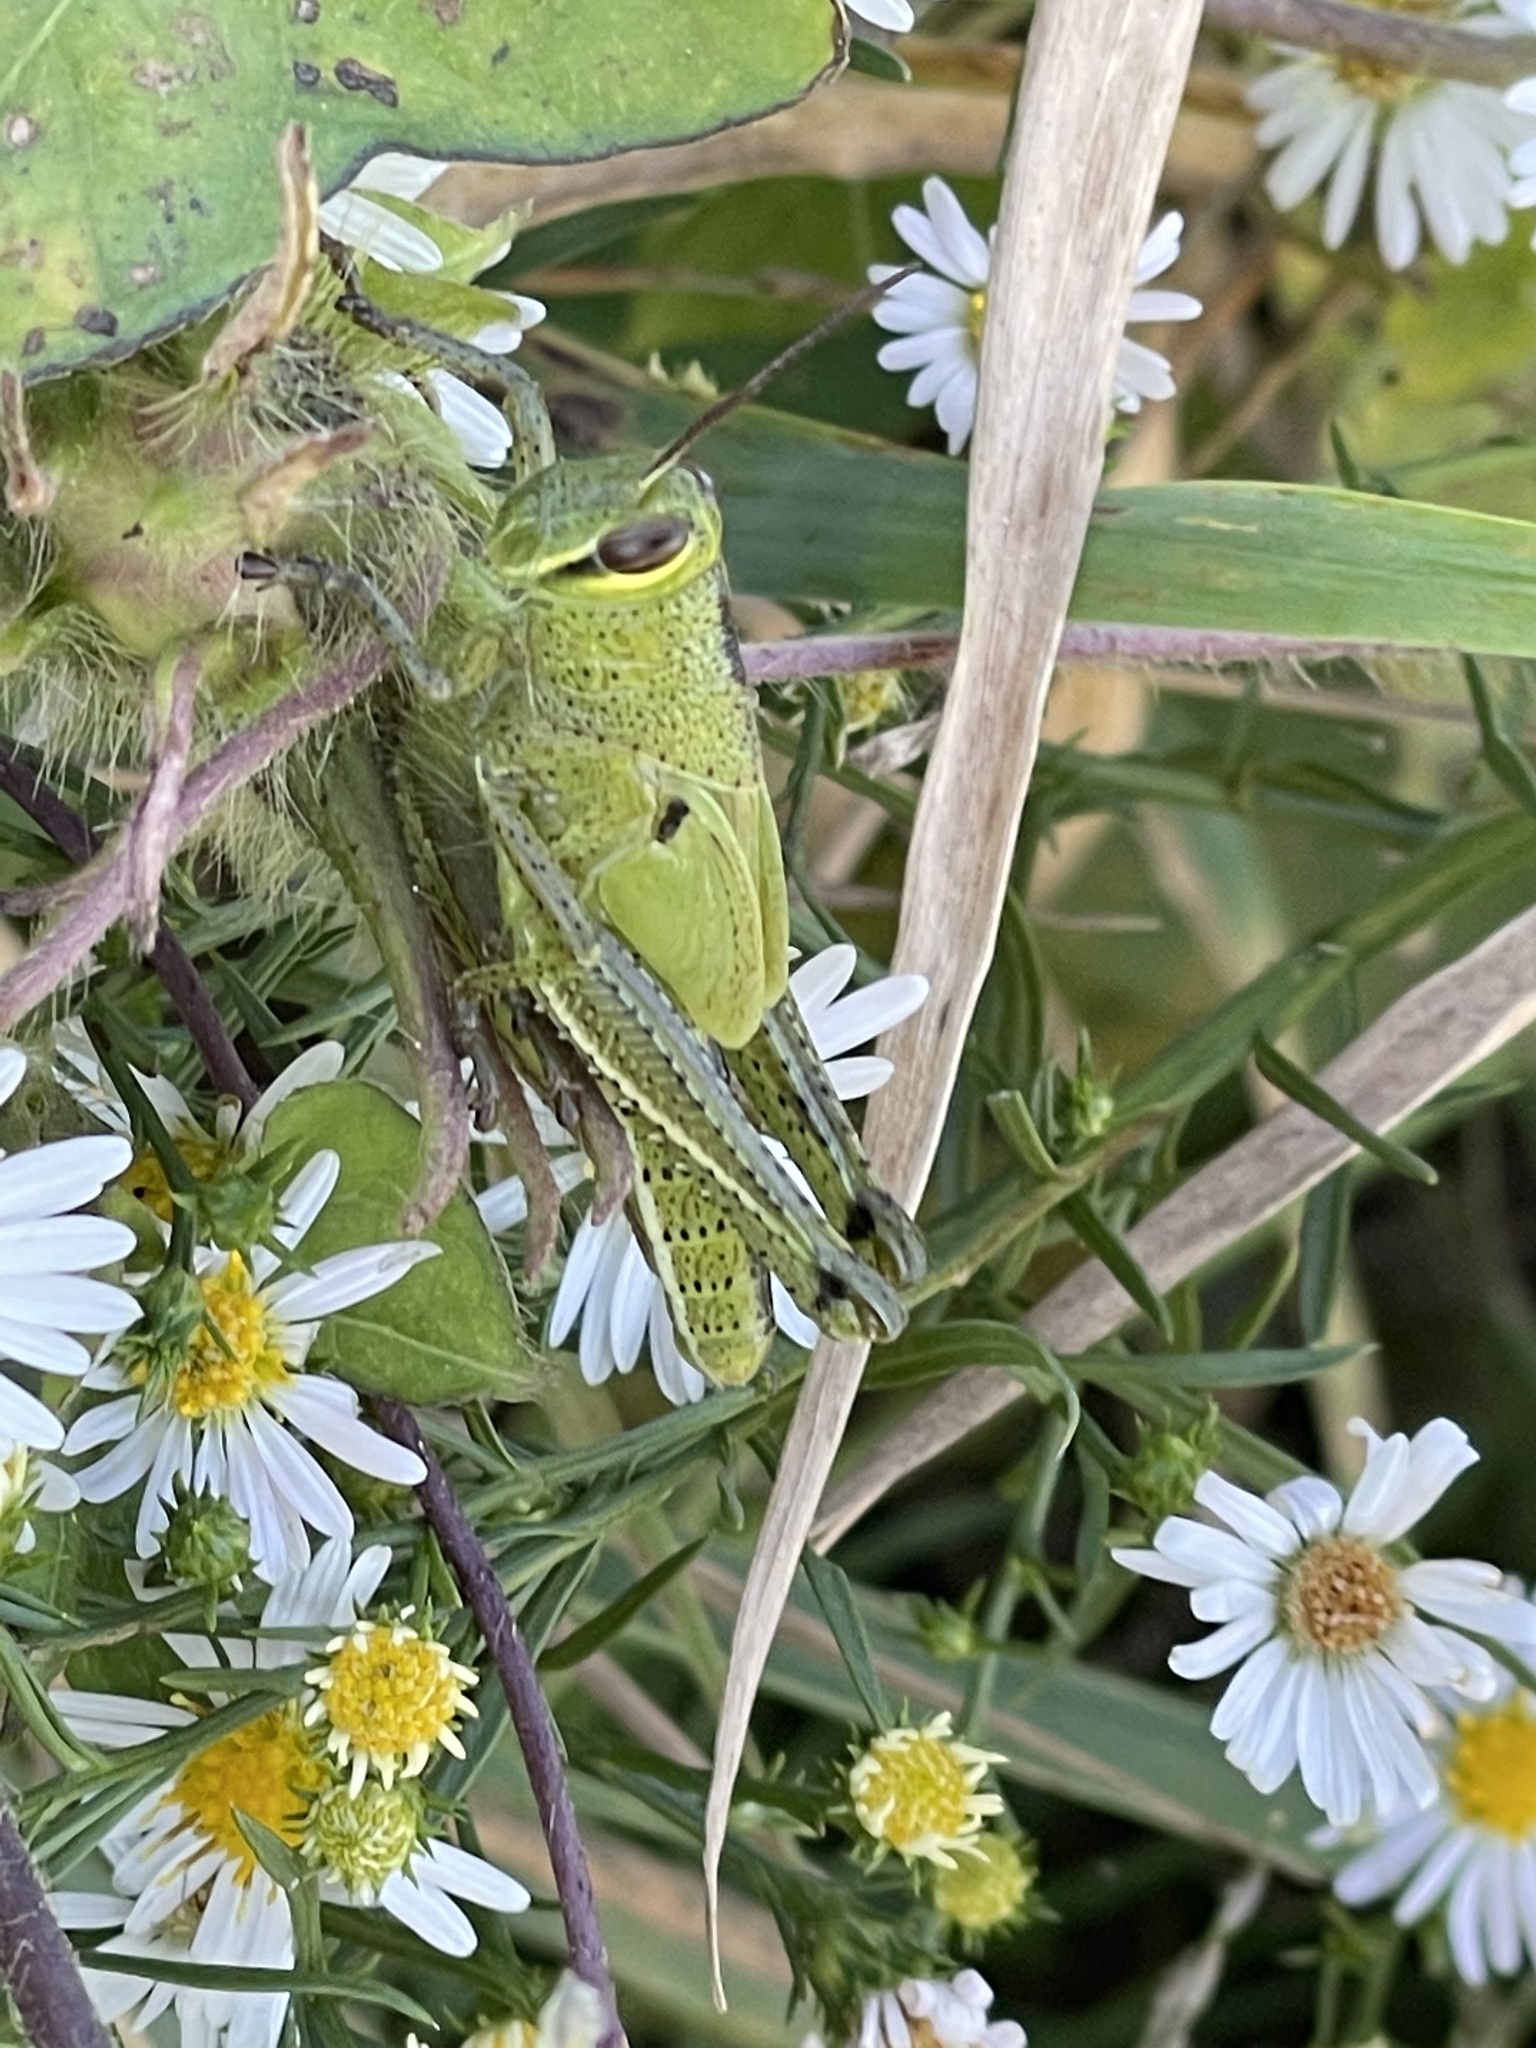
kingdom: Animalia
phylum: Arthropoda
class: Insecta
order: Orthoptera
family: Acrididae
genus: Schistocerca
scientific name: Schistocerca americana
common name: American bird locust
